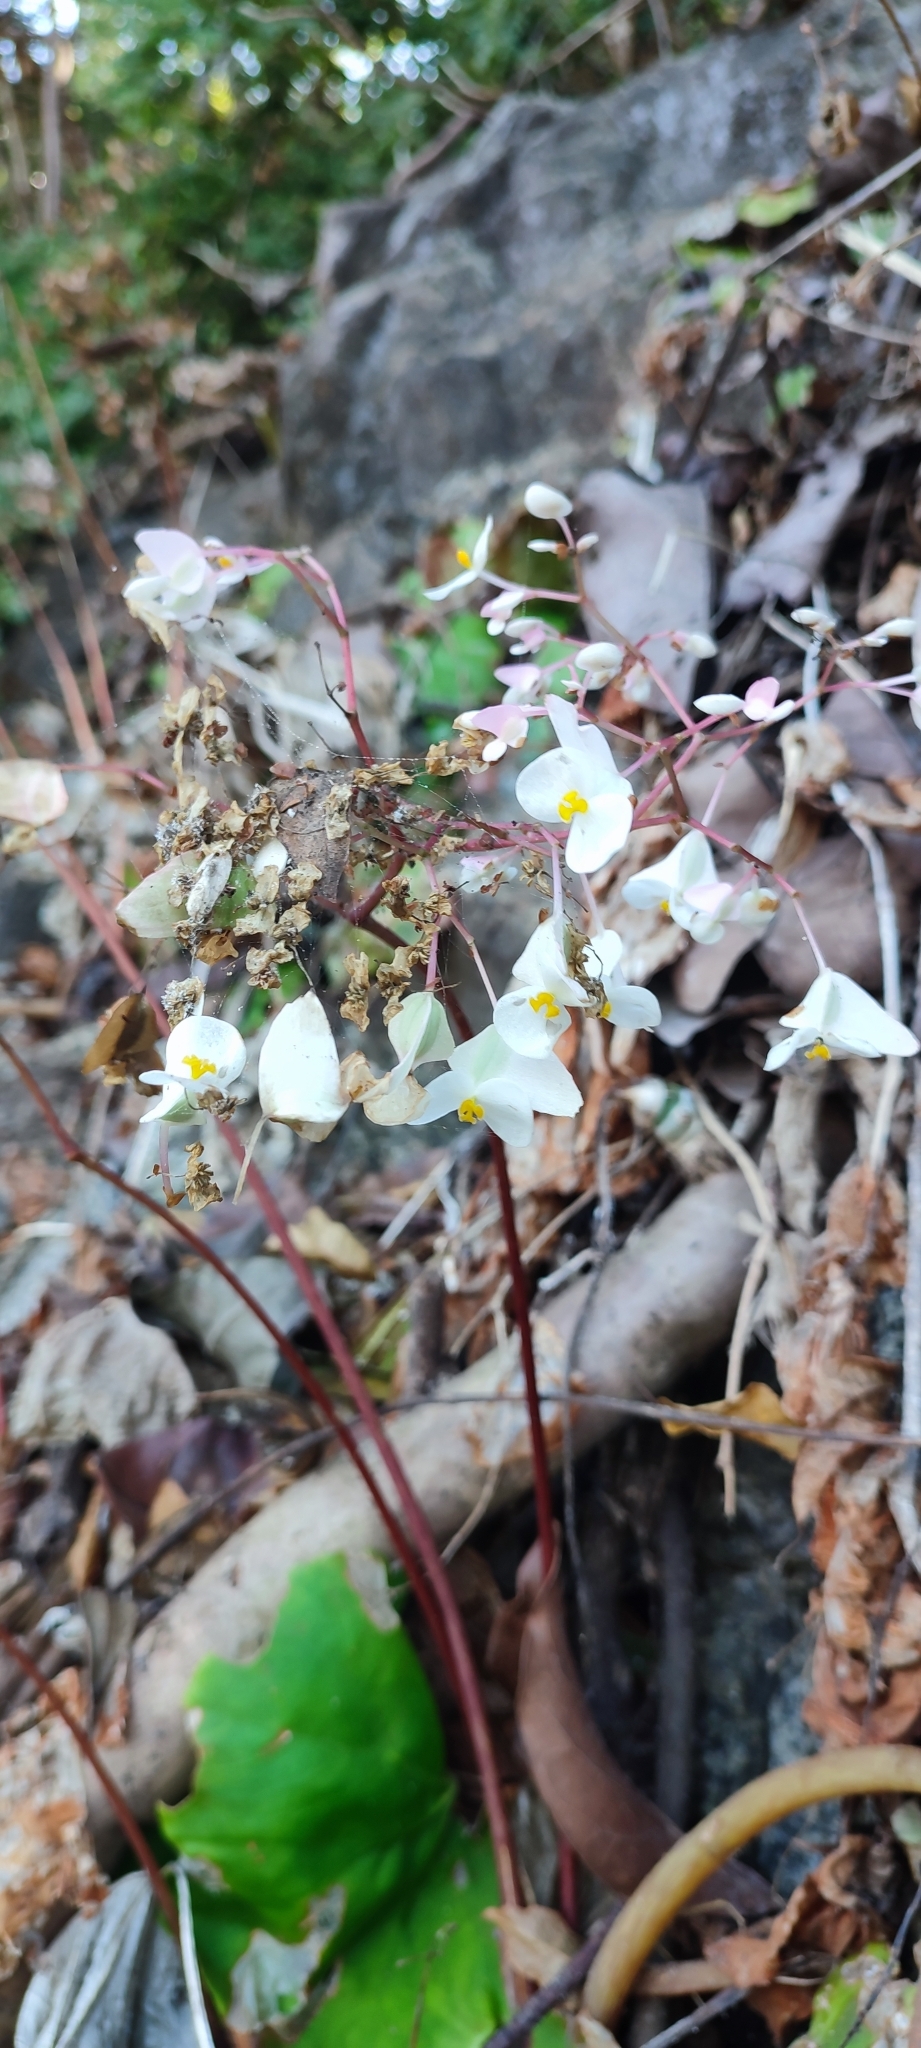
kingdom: Plantae
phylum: Tracheophyta
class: Magnoliopsida
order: Cucurbitales
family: Begoniaceae
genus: Begonia
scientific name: Begonia jaliscana
